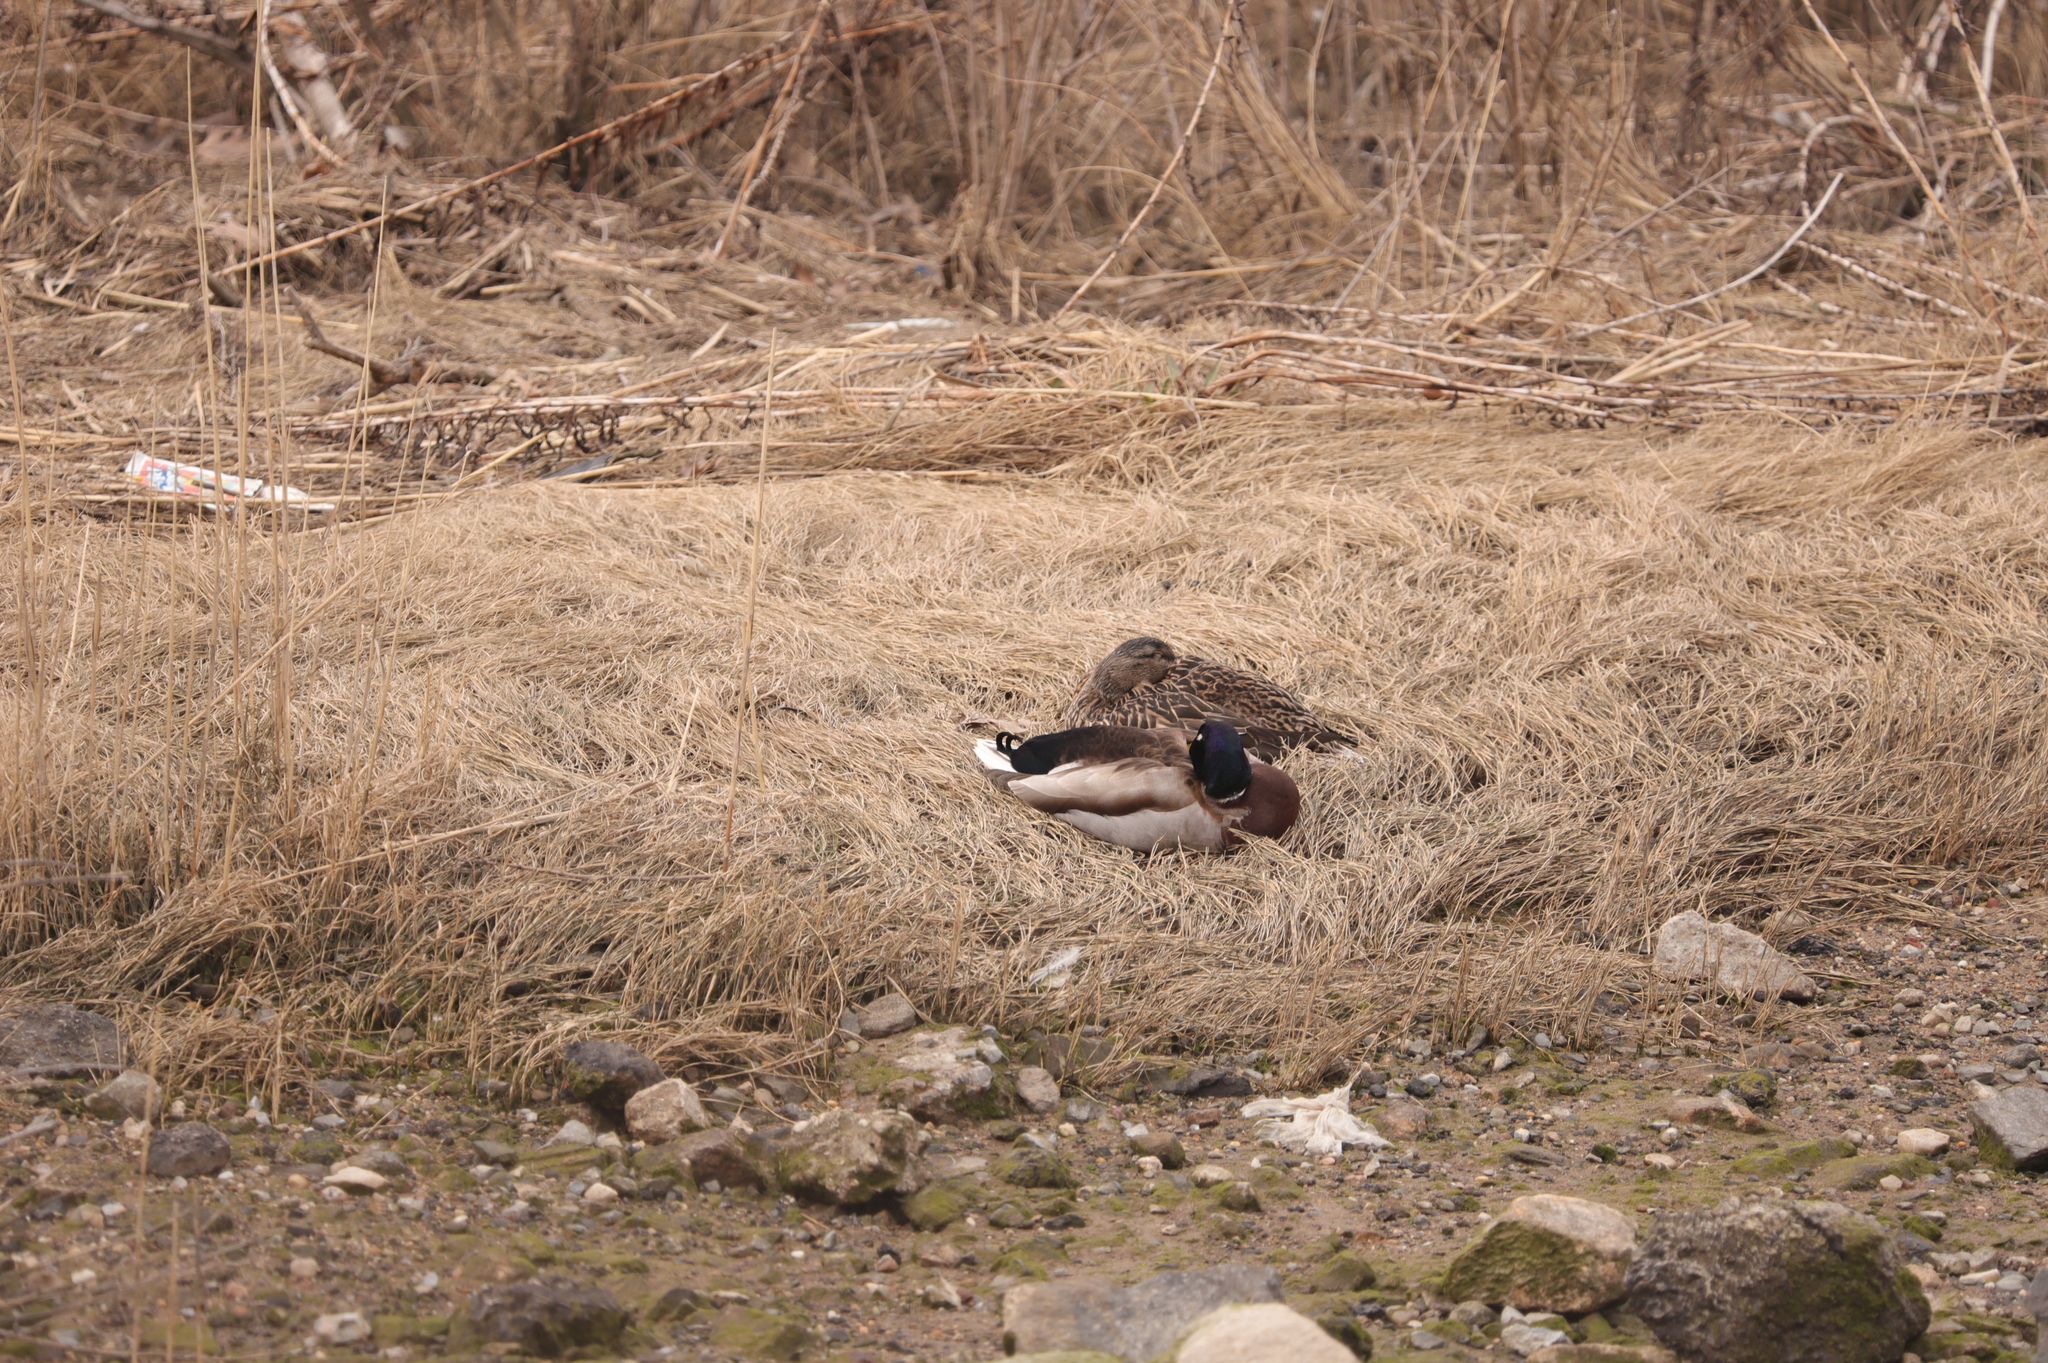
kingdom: Animalia
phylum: Chordata
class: Aves
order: Anseriformes
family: Anatidae
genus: Anas
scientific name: Anas platyrhynchos
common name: Mallard
